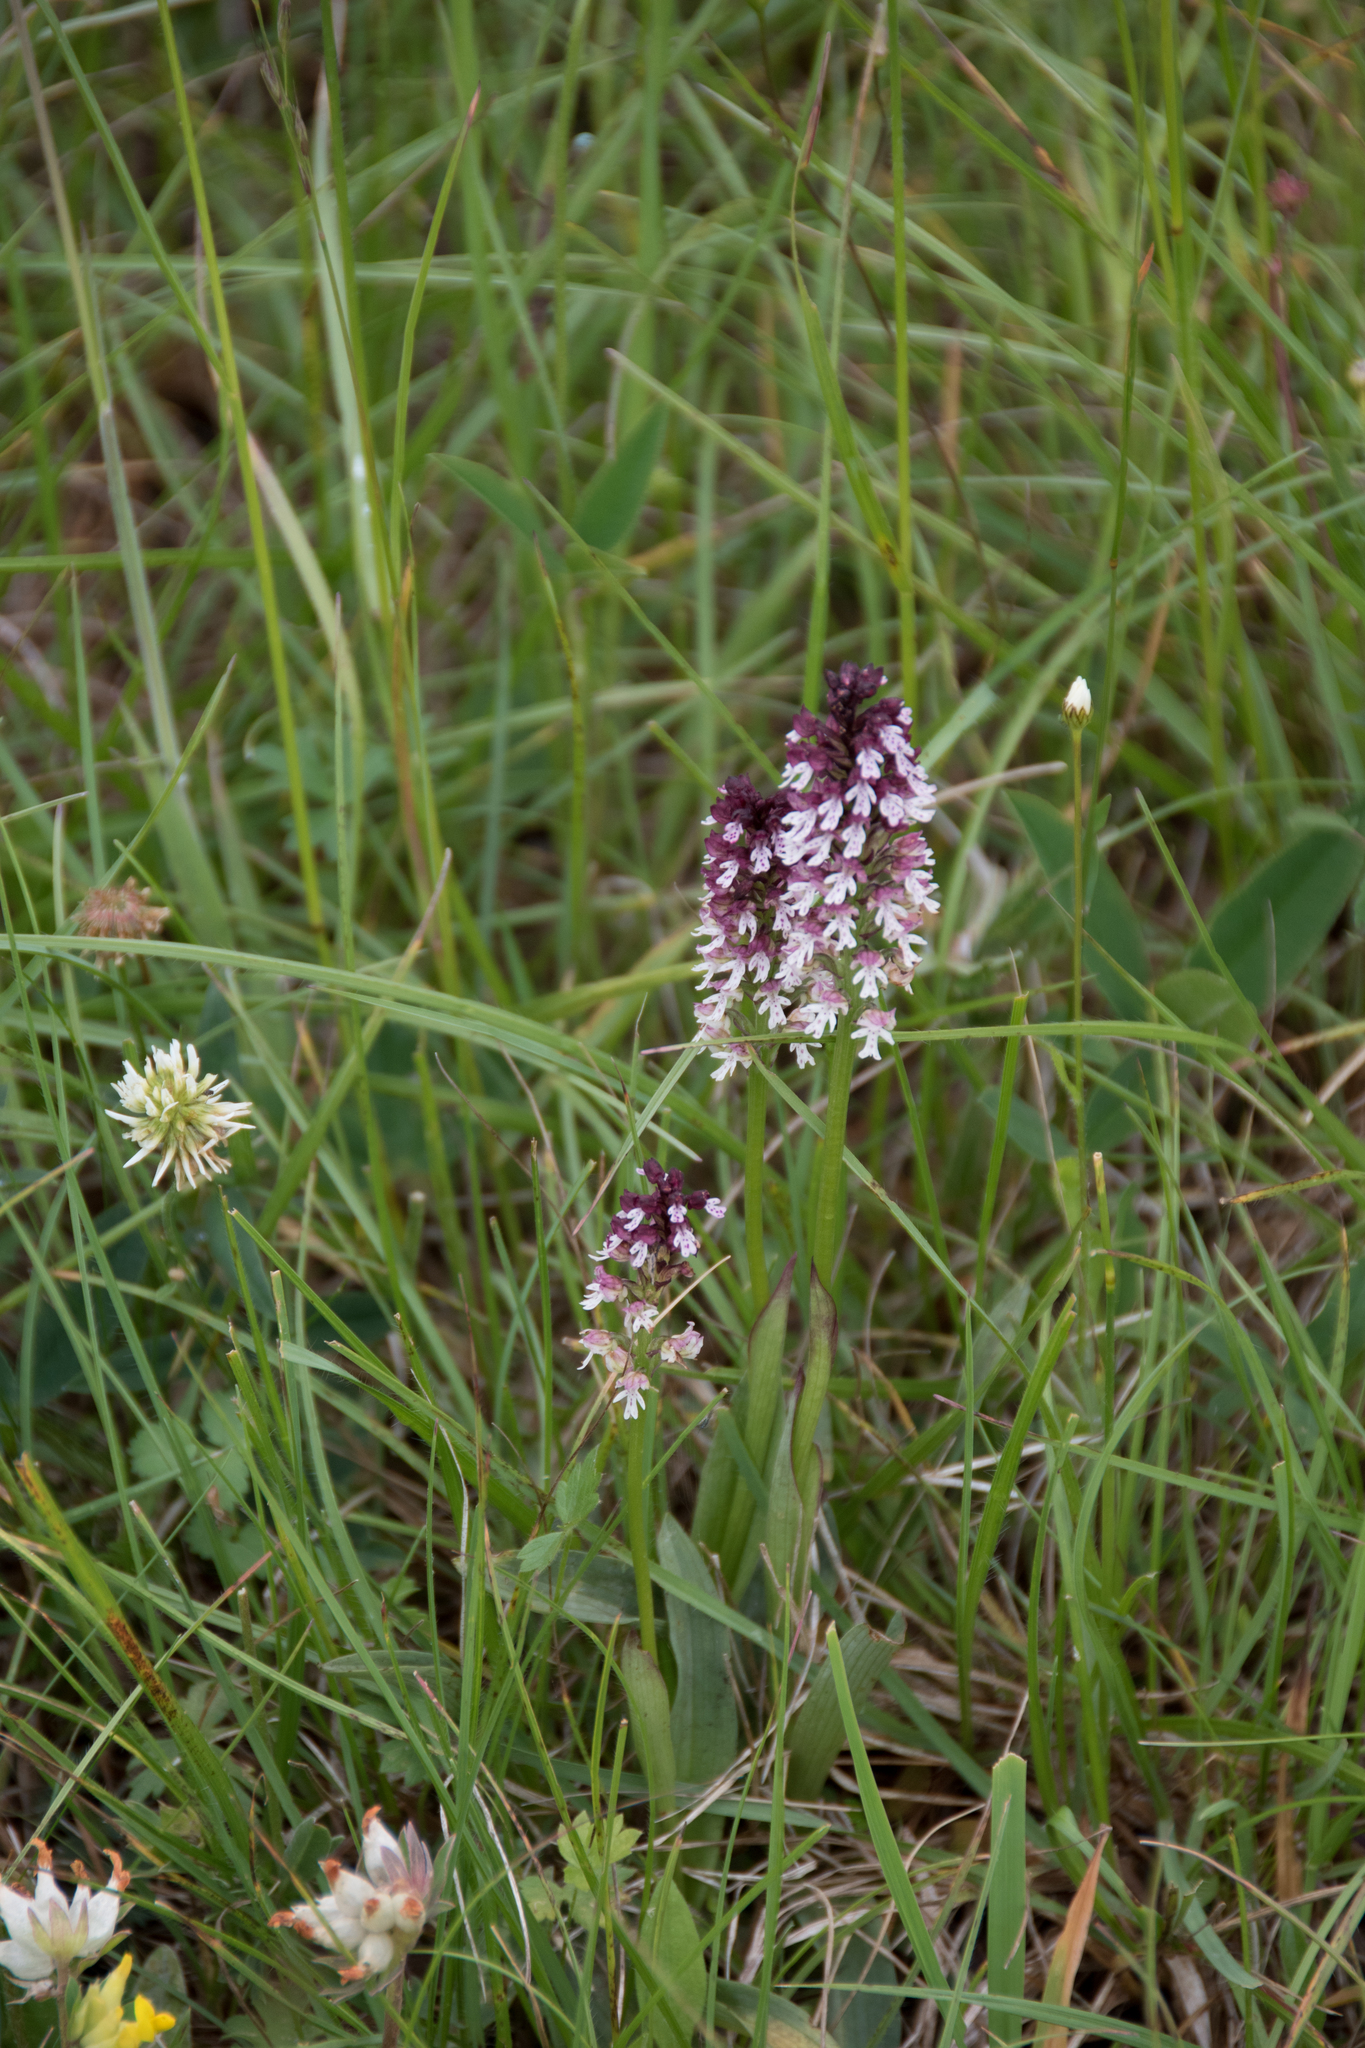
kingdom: Plantae
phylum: Tracheophyta
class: Liliopsida
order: Asparagales
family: Orchidaceae
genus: Neotinea
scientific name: Neotinea ustulata
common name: Burnt orchid
